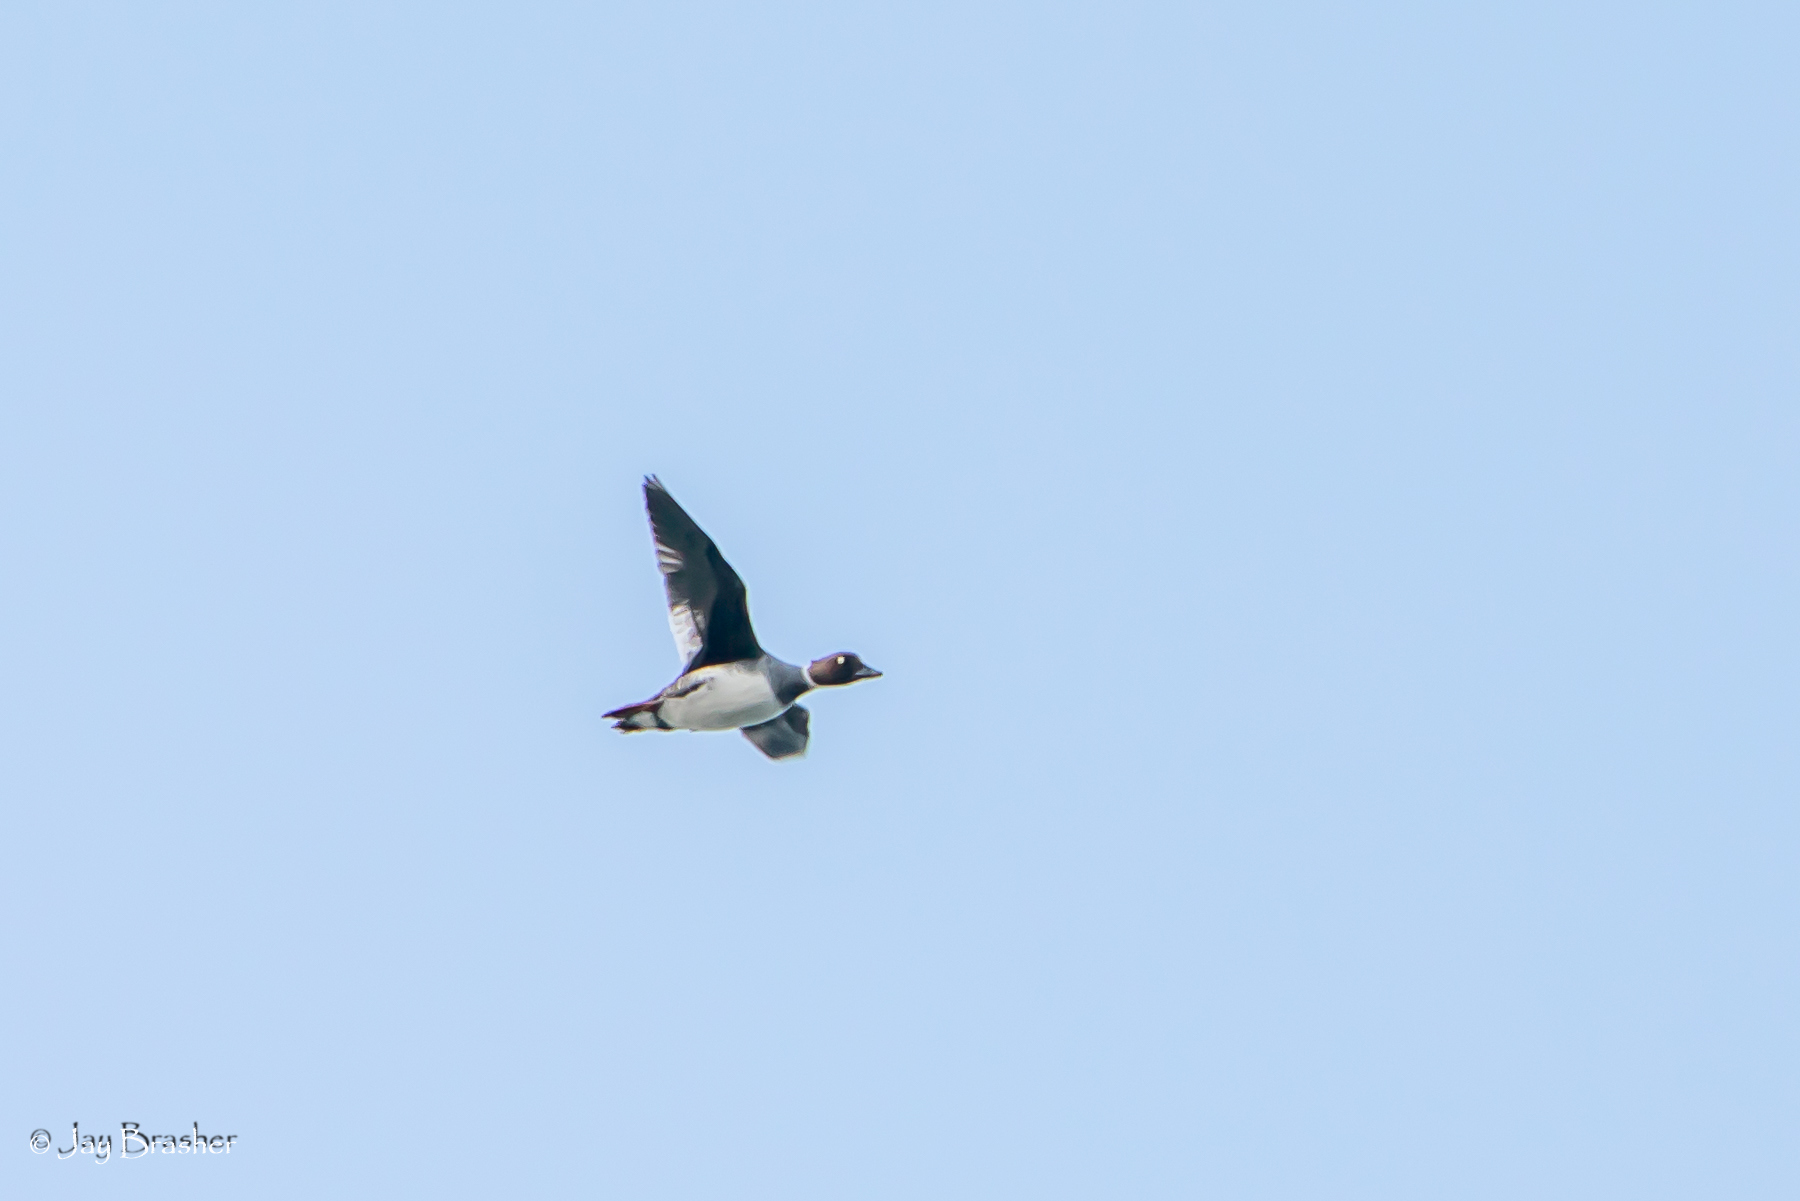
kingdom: Animalia
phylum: Chordata
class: Aves
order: Anseriformes
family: Anatidae
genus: Bucephala
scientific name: Bucephala clangula
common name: Common goldeneye
